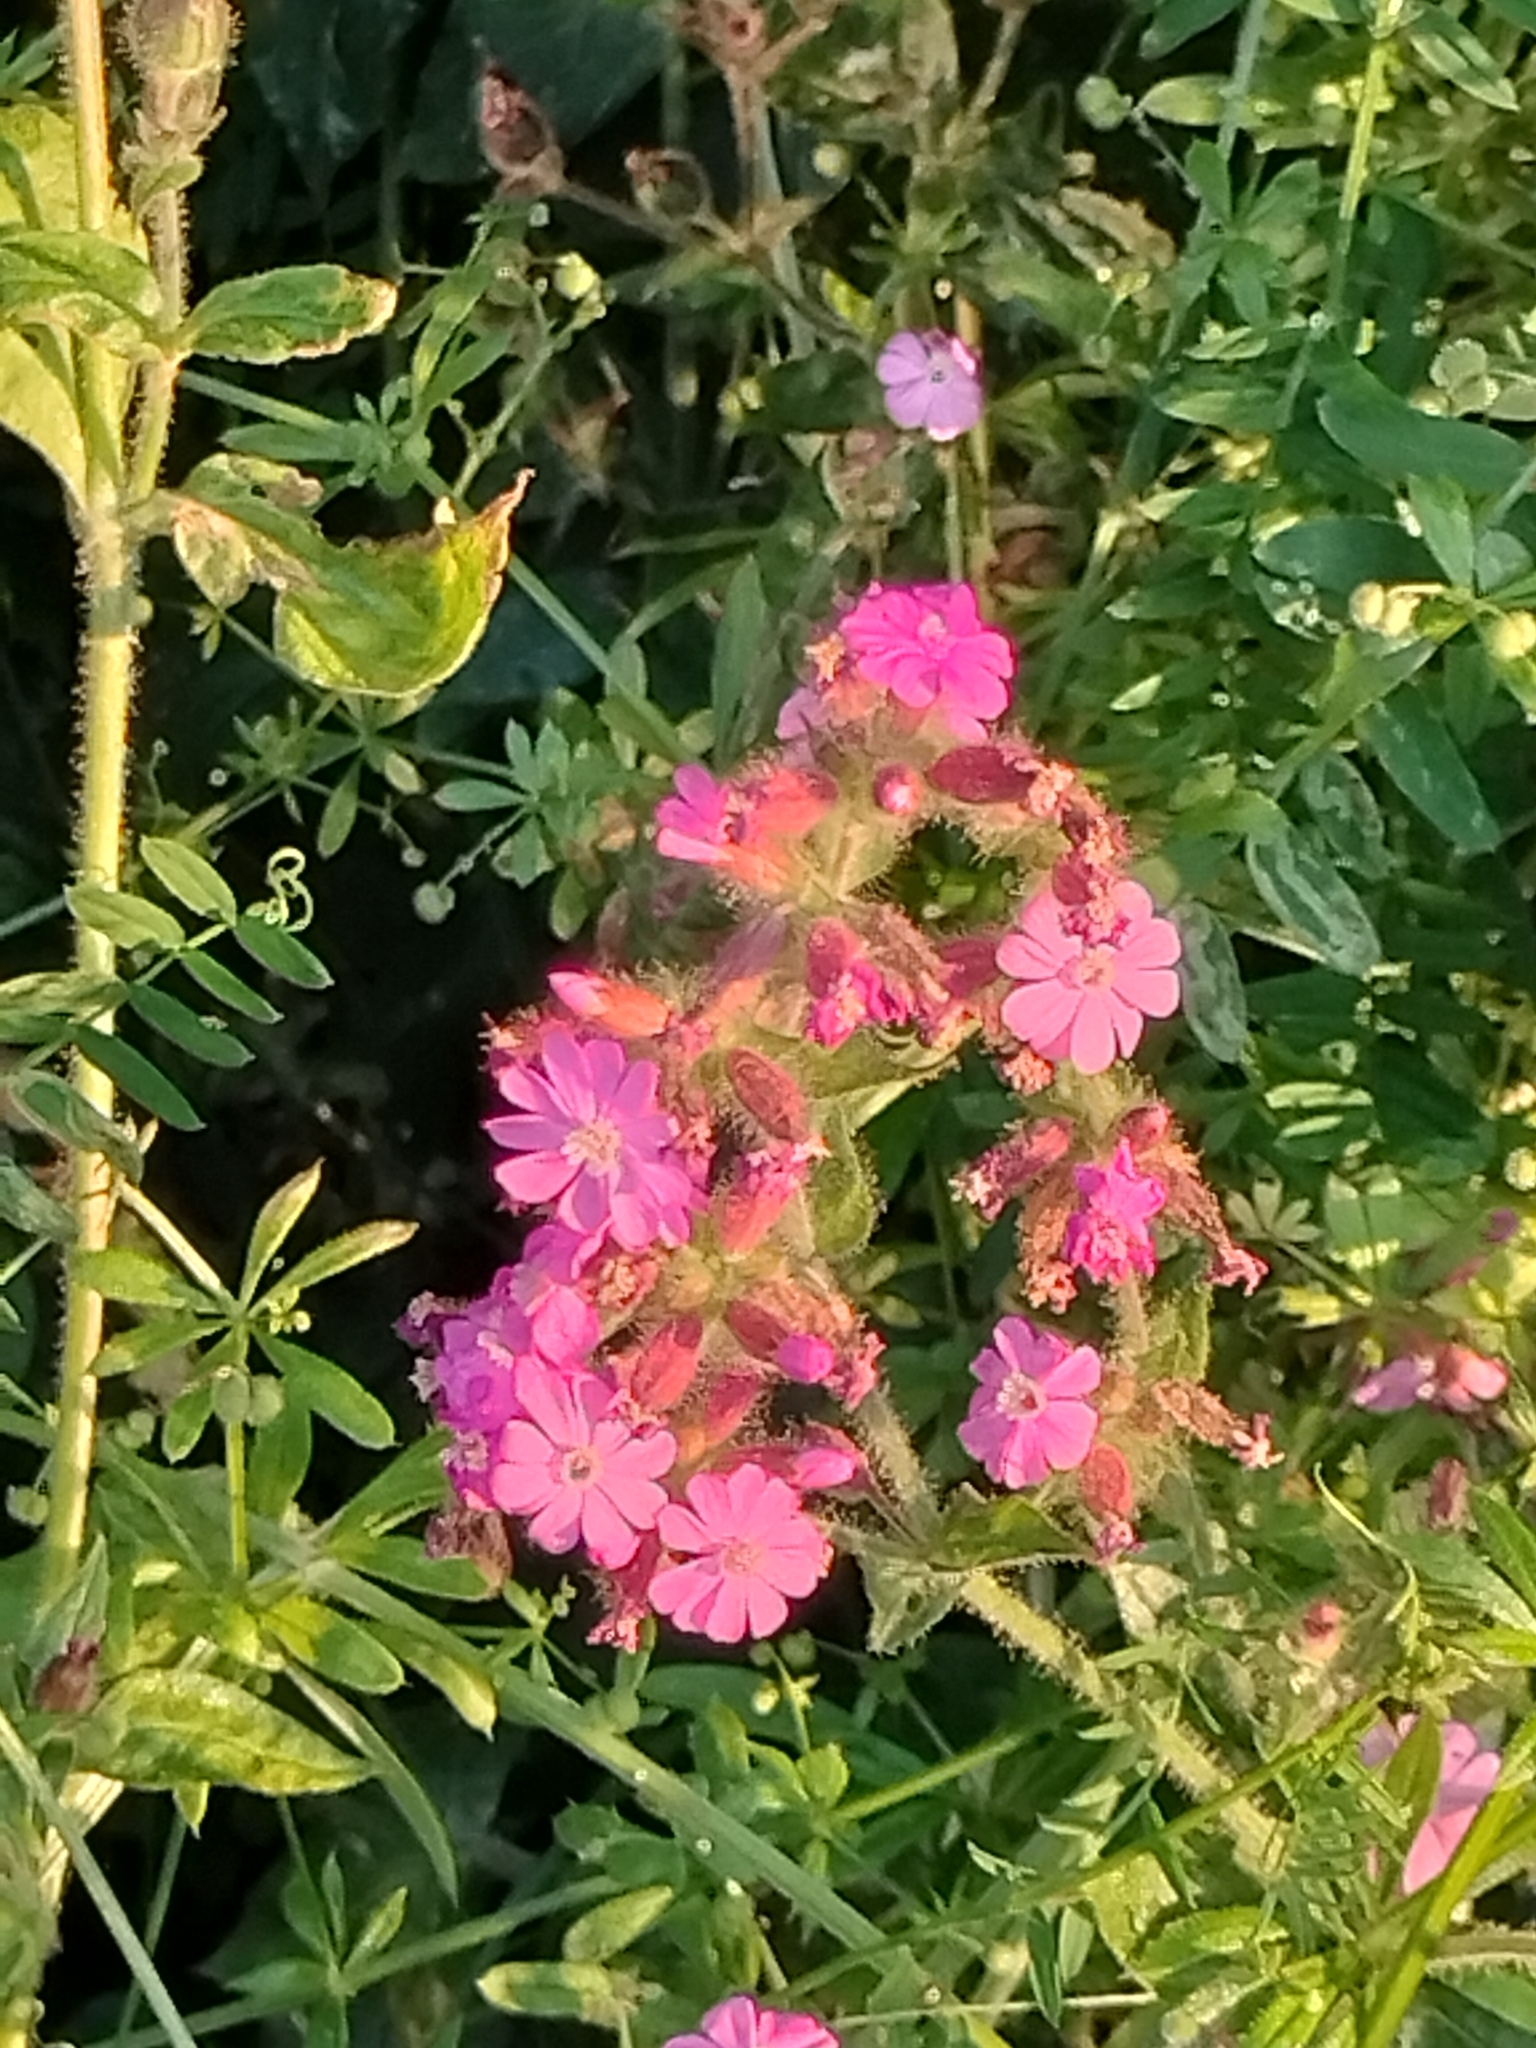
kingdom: Plantae
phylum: Tracheophyta
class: Magnoliopsida
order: Caryophyllales
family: Caryophyllaceae
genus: Silene
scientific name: Silene dioica
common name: Red campion
